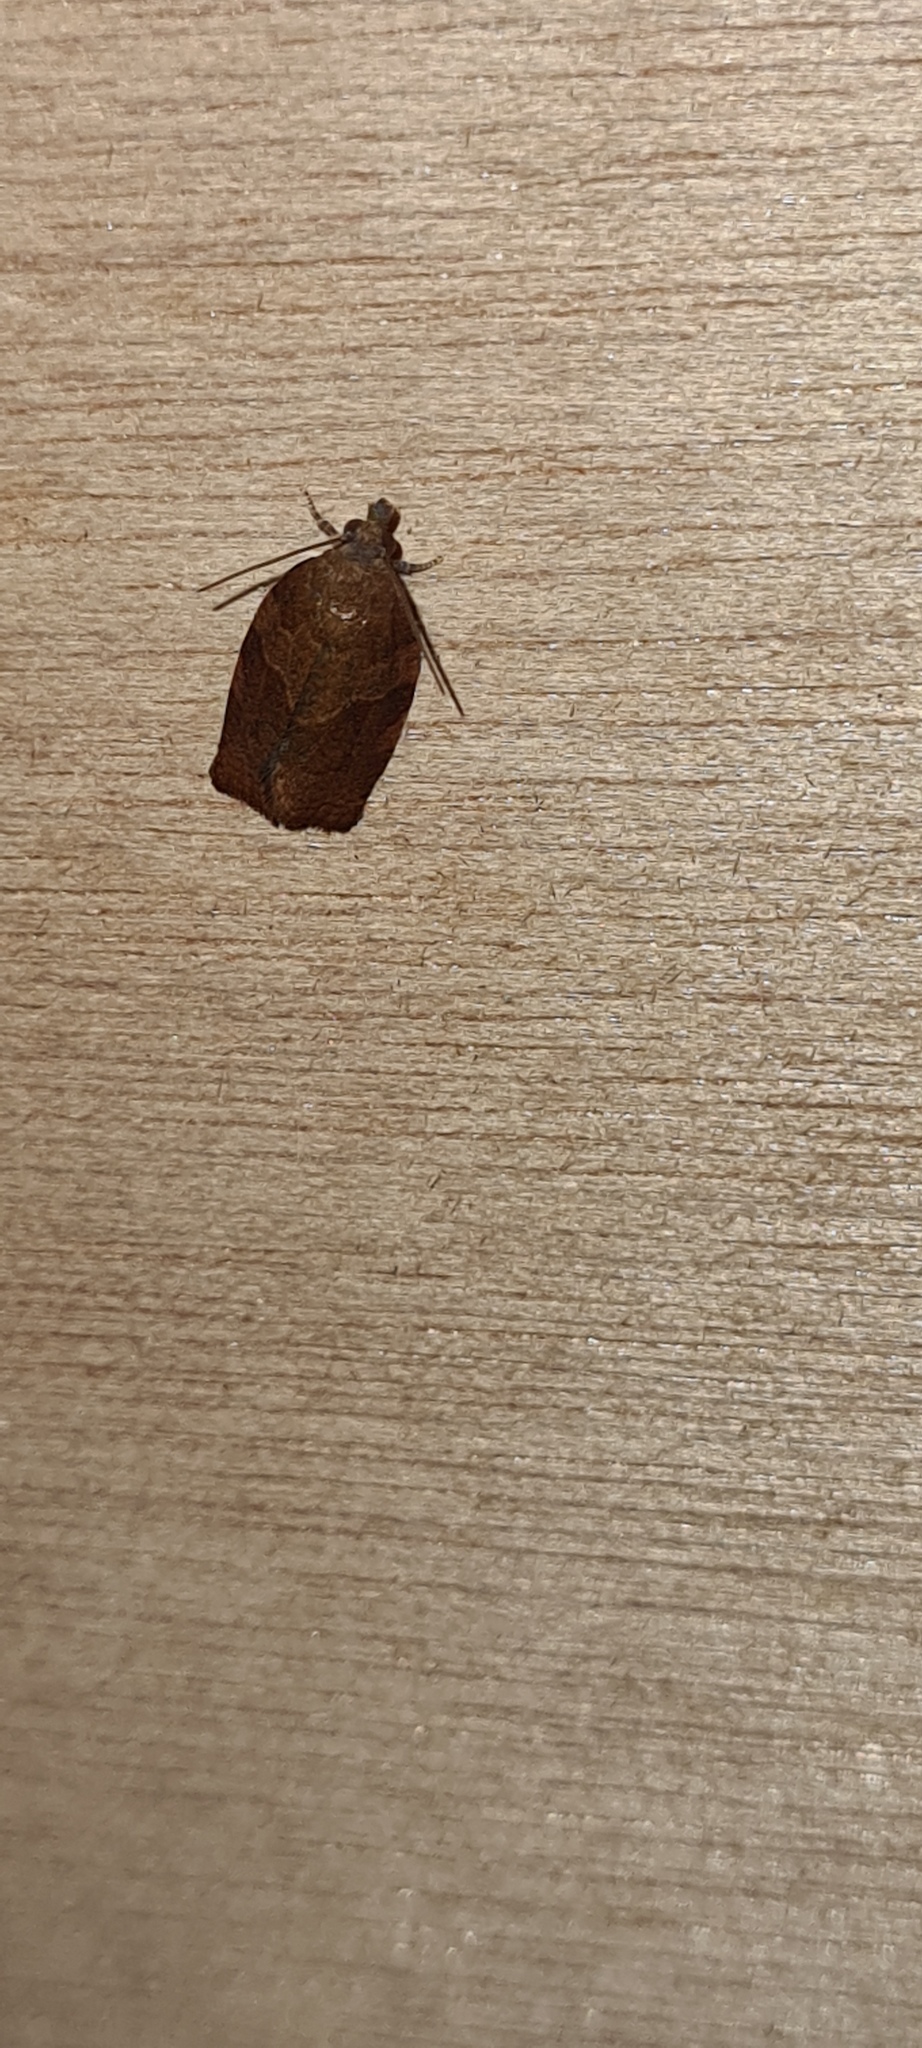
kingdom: Animalia
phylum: Arthropoda
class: Insecta
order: Lepidoptera
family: Tortricidae
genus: Pandemis
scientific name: Pandemis heparana
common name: Dark fruit-tree tortrix
